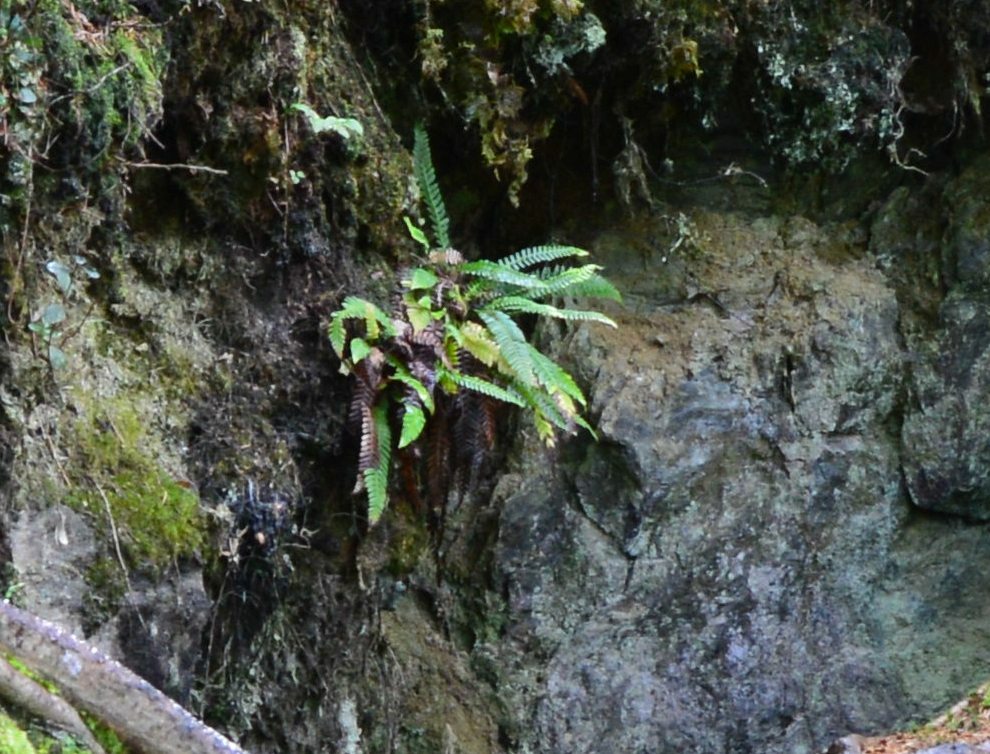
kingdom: Plantae
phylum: Tracheophyta
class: Polypodiopsida
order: Polypodiales
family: Blechnaceae
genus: Struthiopteris
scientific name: Struthiopteris spicant
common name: Deer fern
